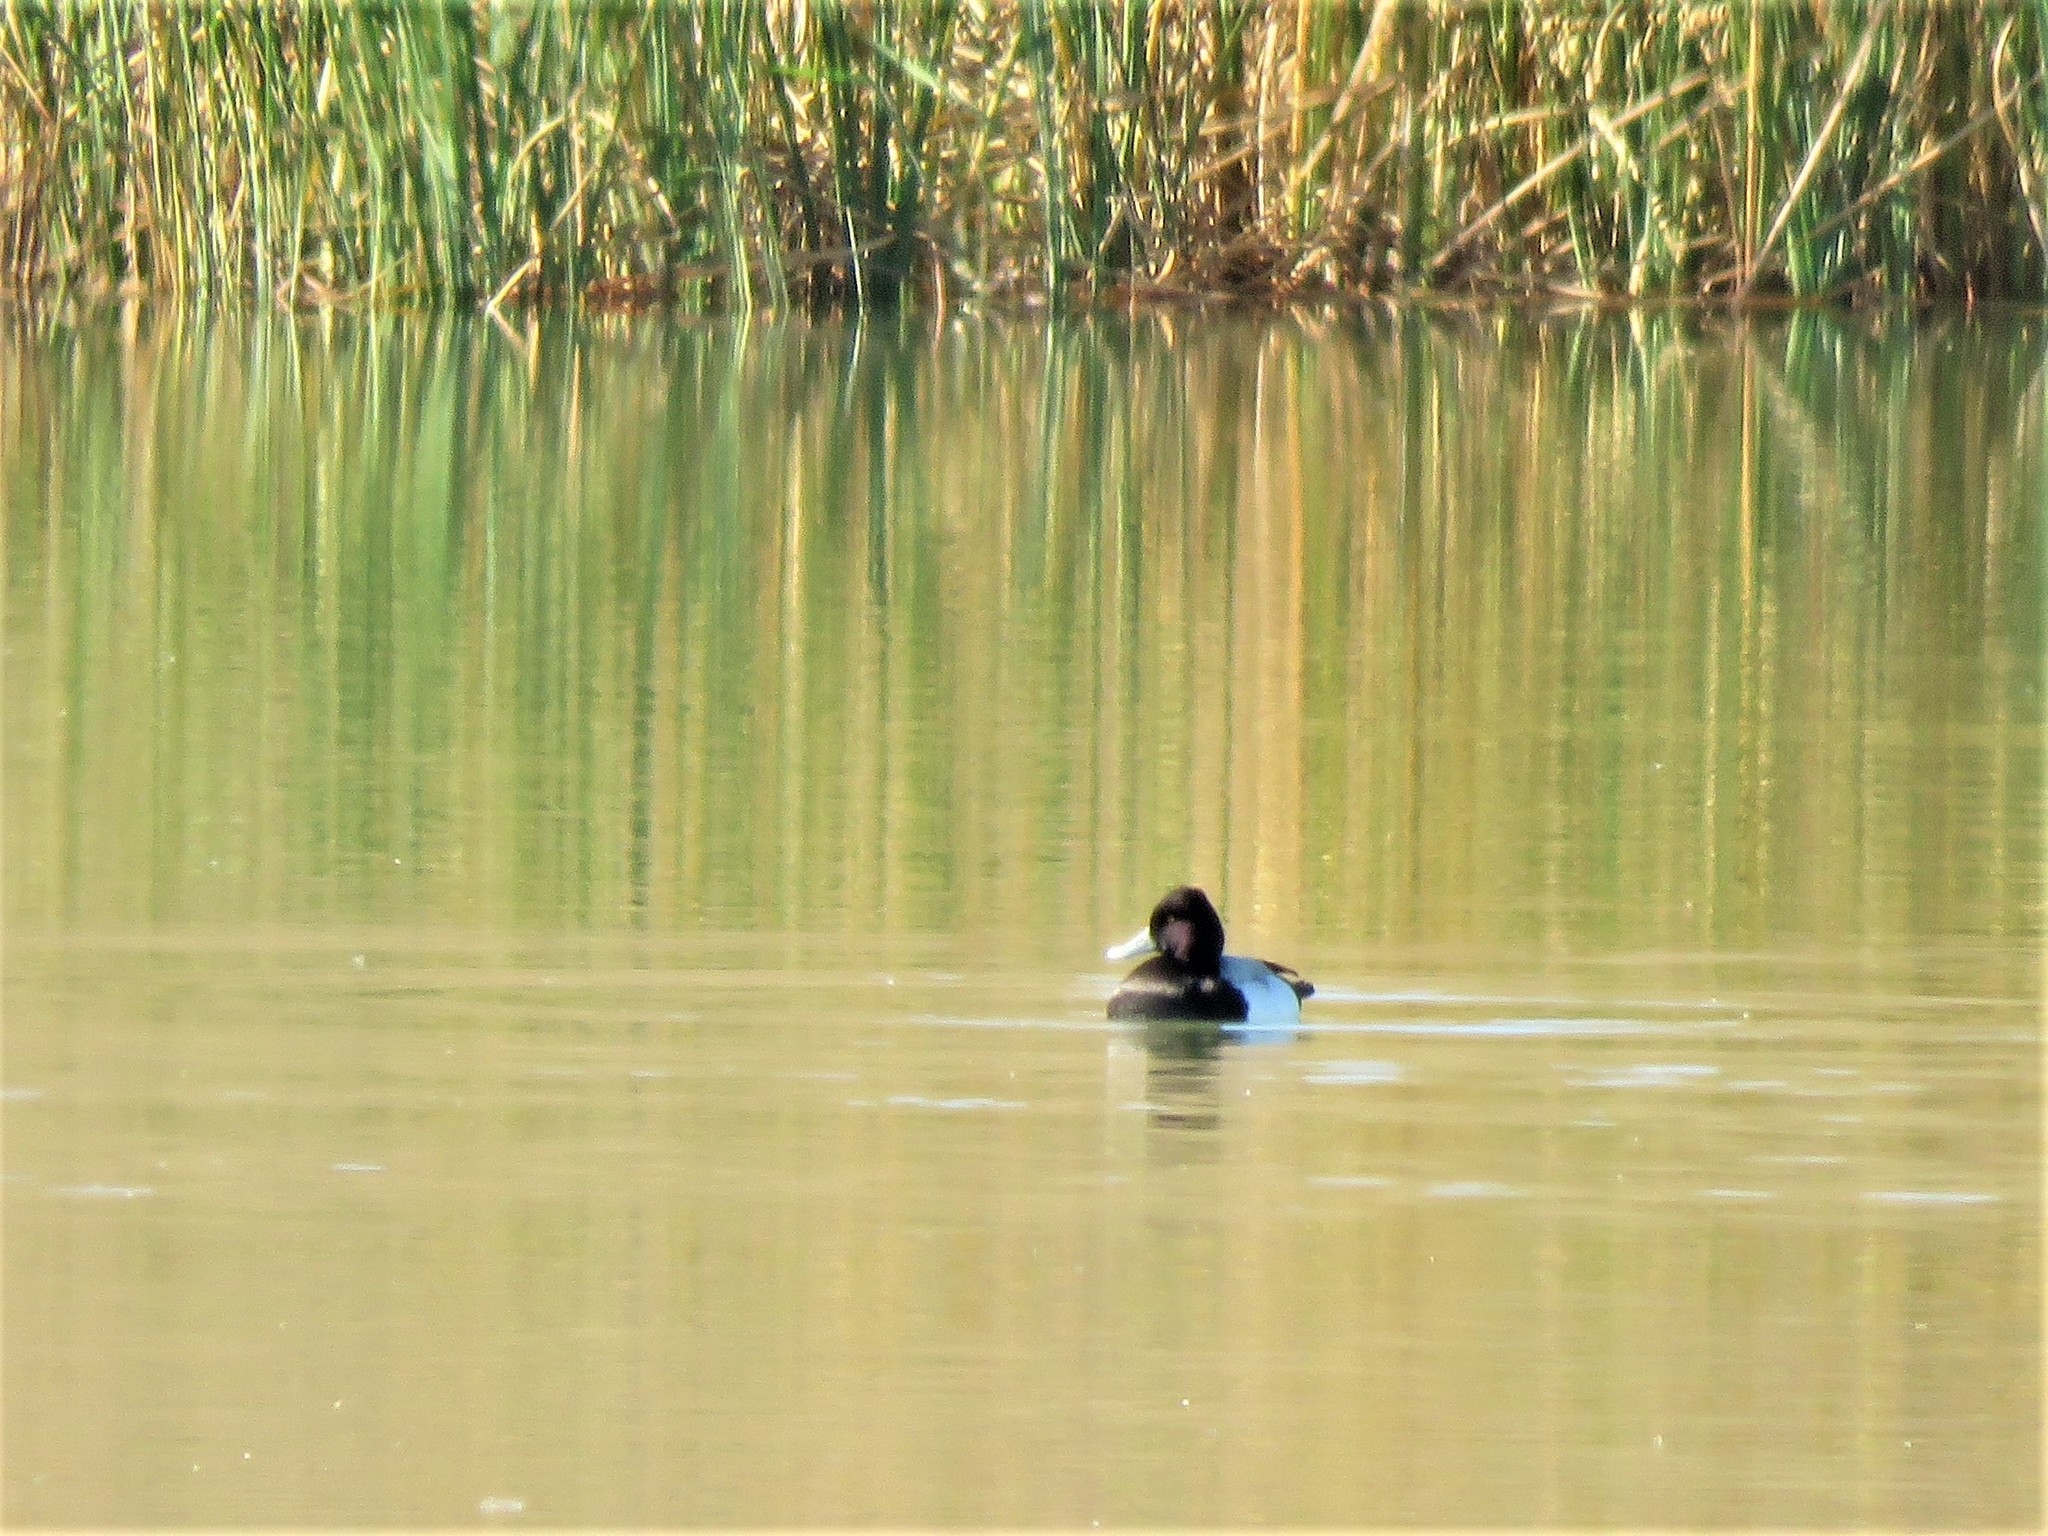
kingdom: Animalia
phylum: Chordata
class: Aves
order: Anseriformes
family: Anatidae
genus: Aythya
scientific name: Aythya affinis
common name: Lesser scaup
